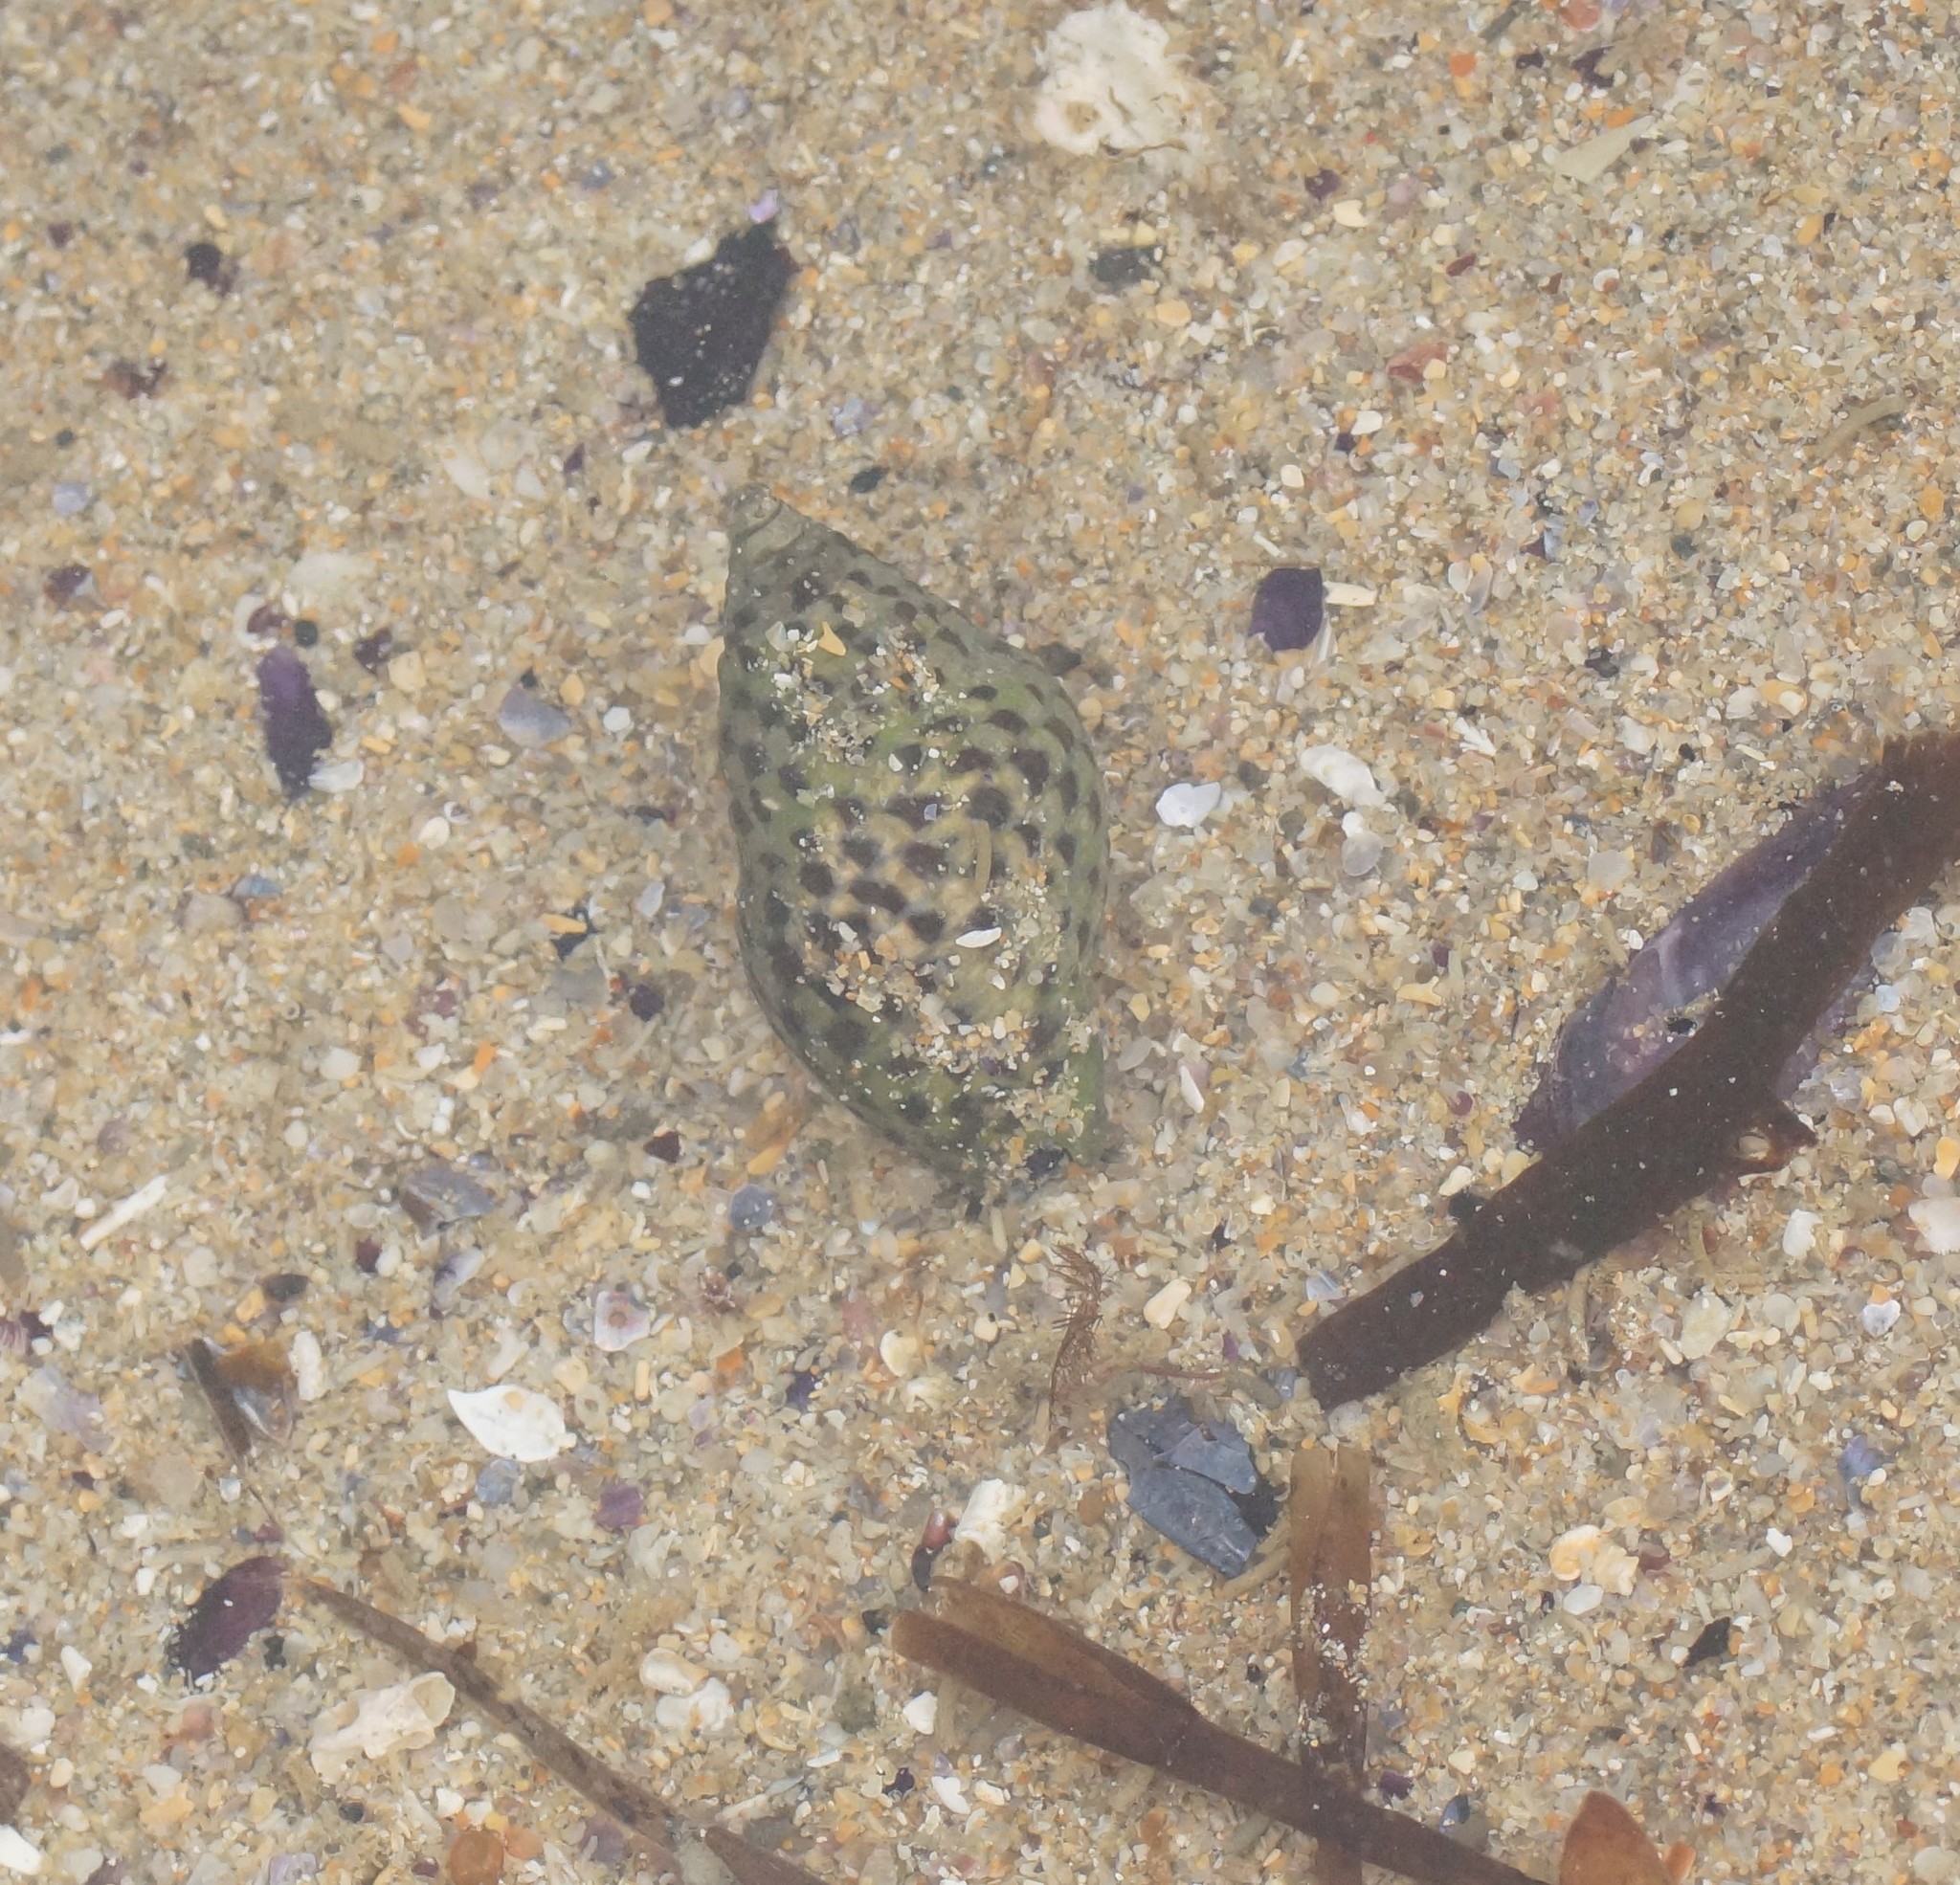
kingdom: Animalia
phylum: Mollusca
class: Gastropoda
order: Neogastropoda
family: Cominellidae
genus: Cominella
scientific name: Cominella lineolata
